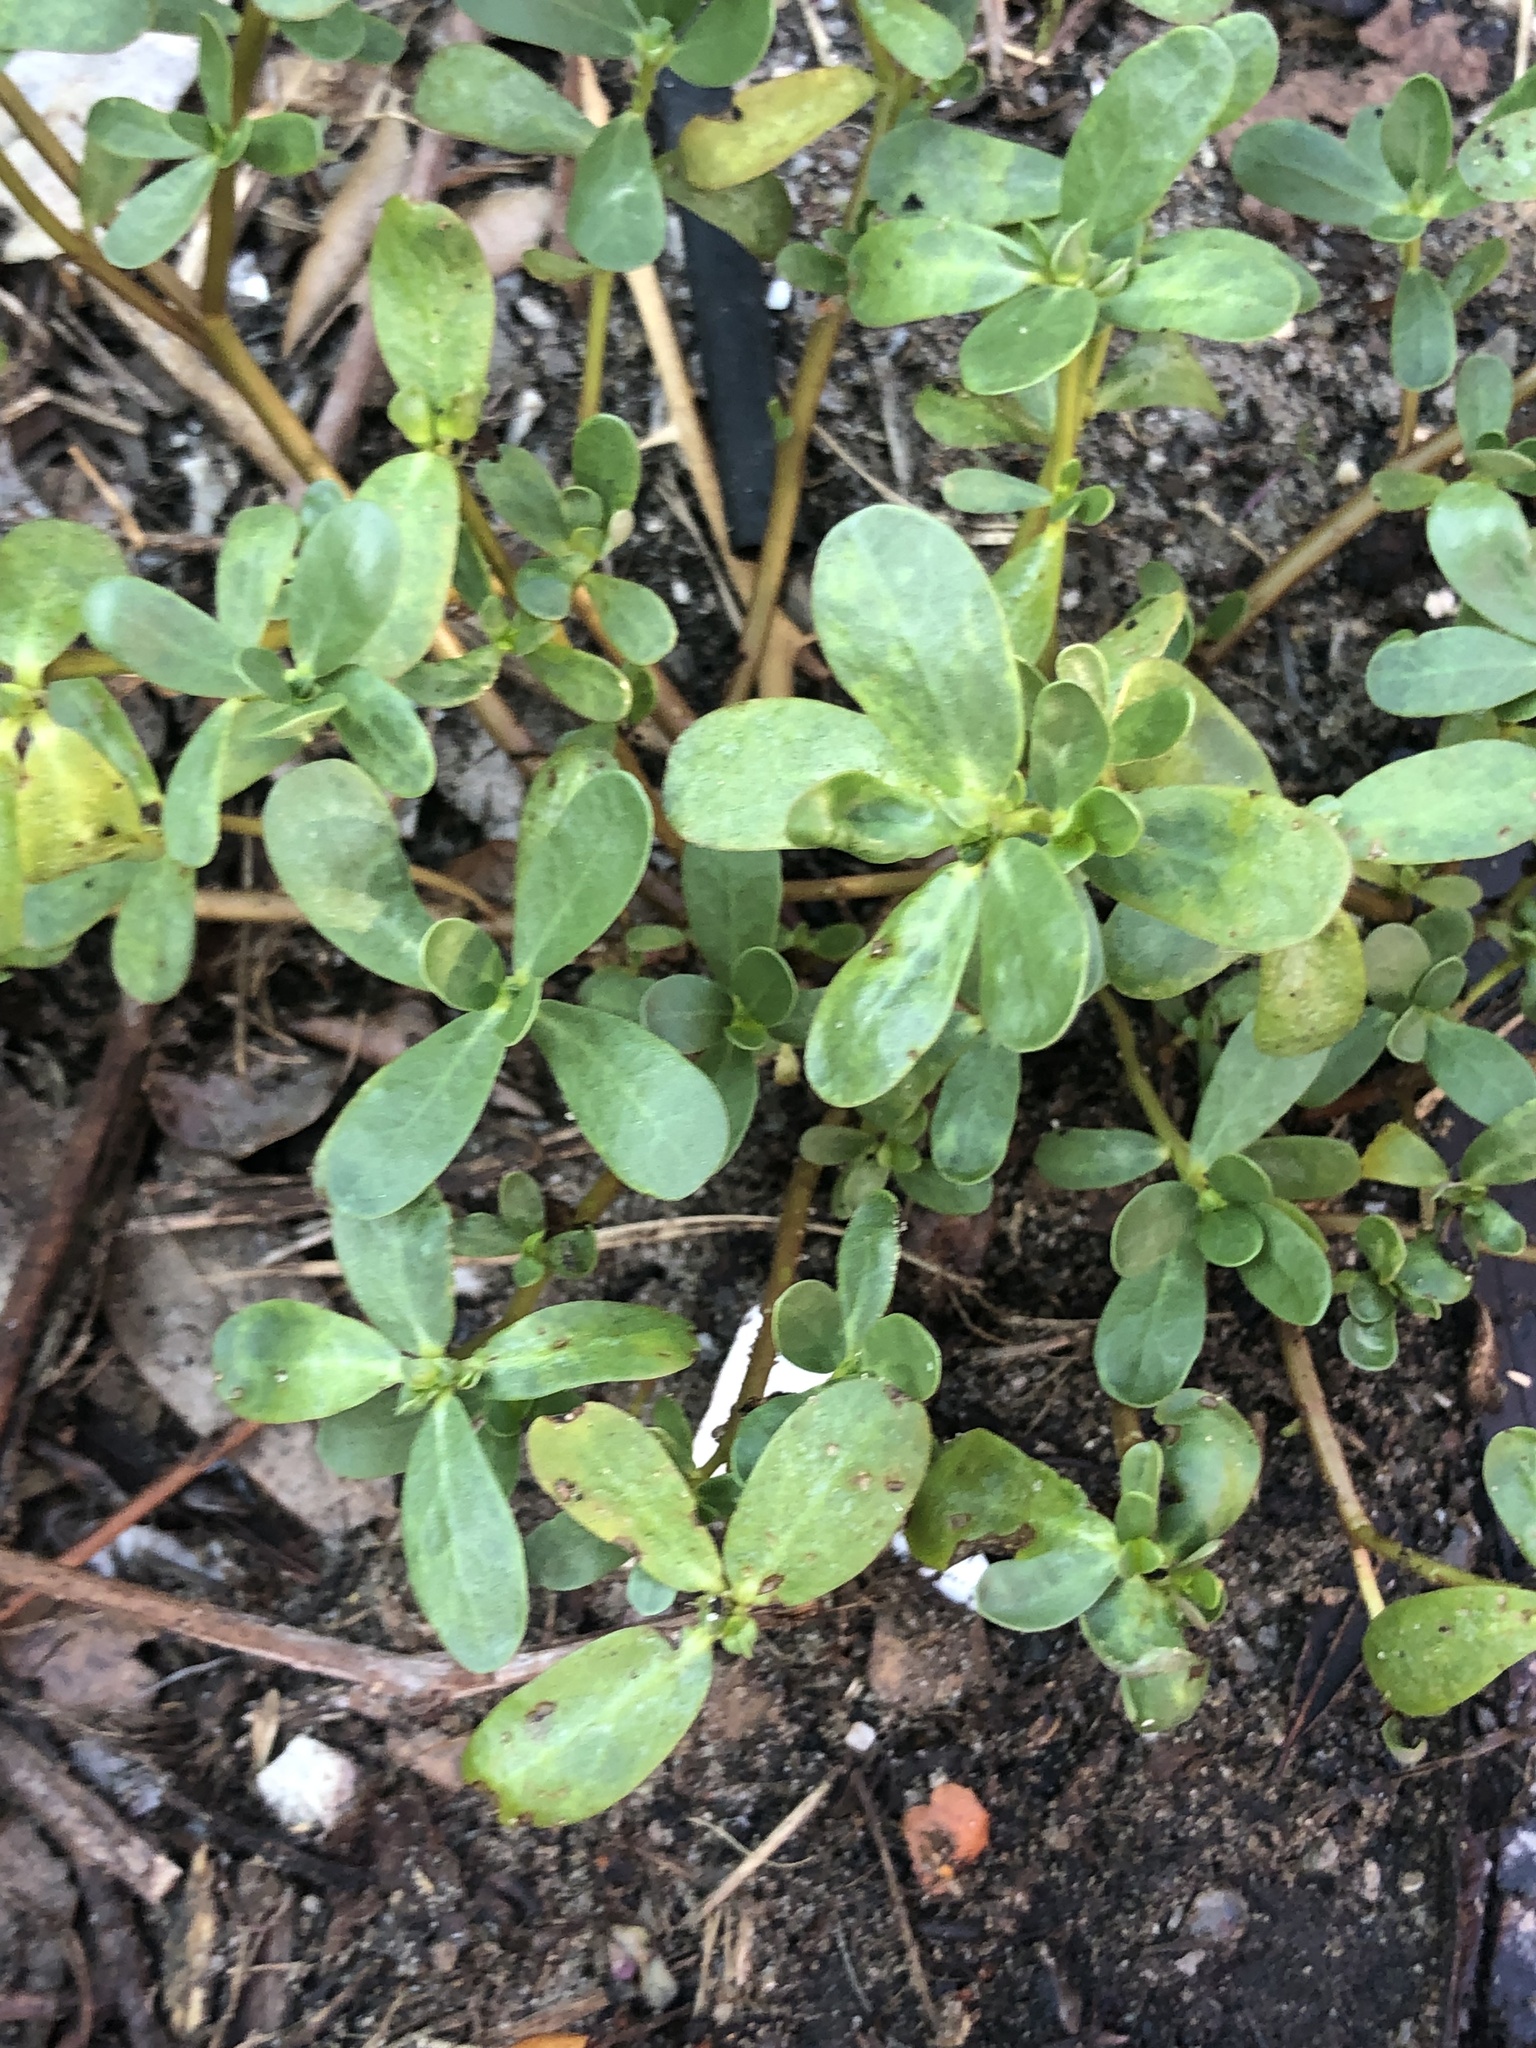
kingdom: Plantae
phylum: Tracheophyta
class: Magnoliopsida
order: Caryophyllales
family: Portulacaceae
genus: Portulaca
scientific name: Portulaca oleracea
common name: Common purslane
